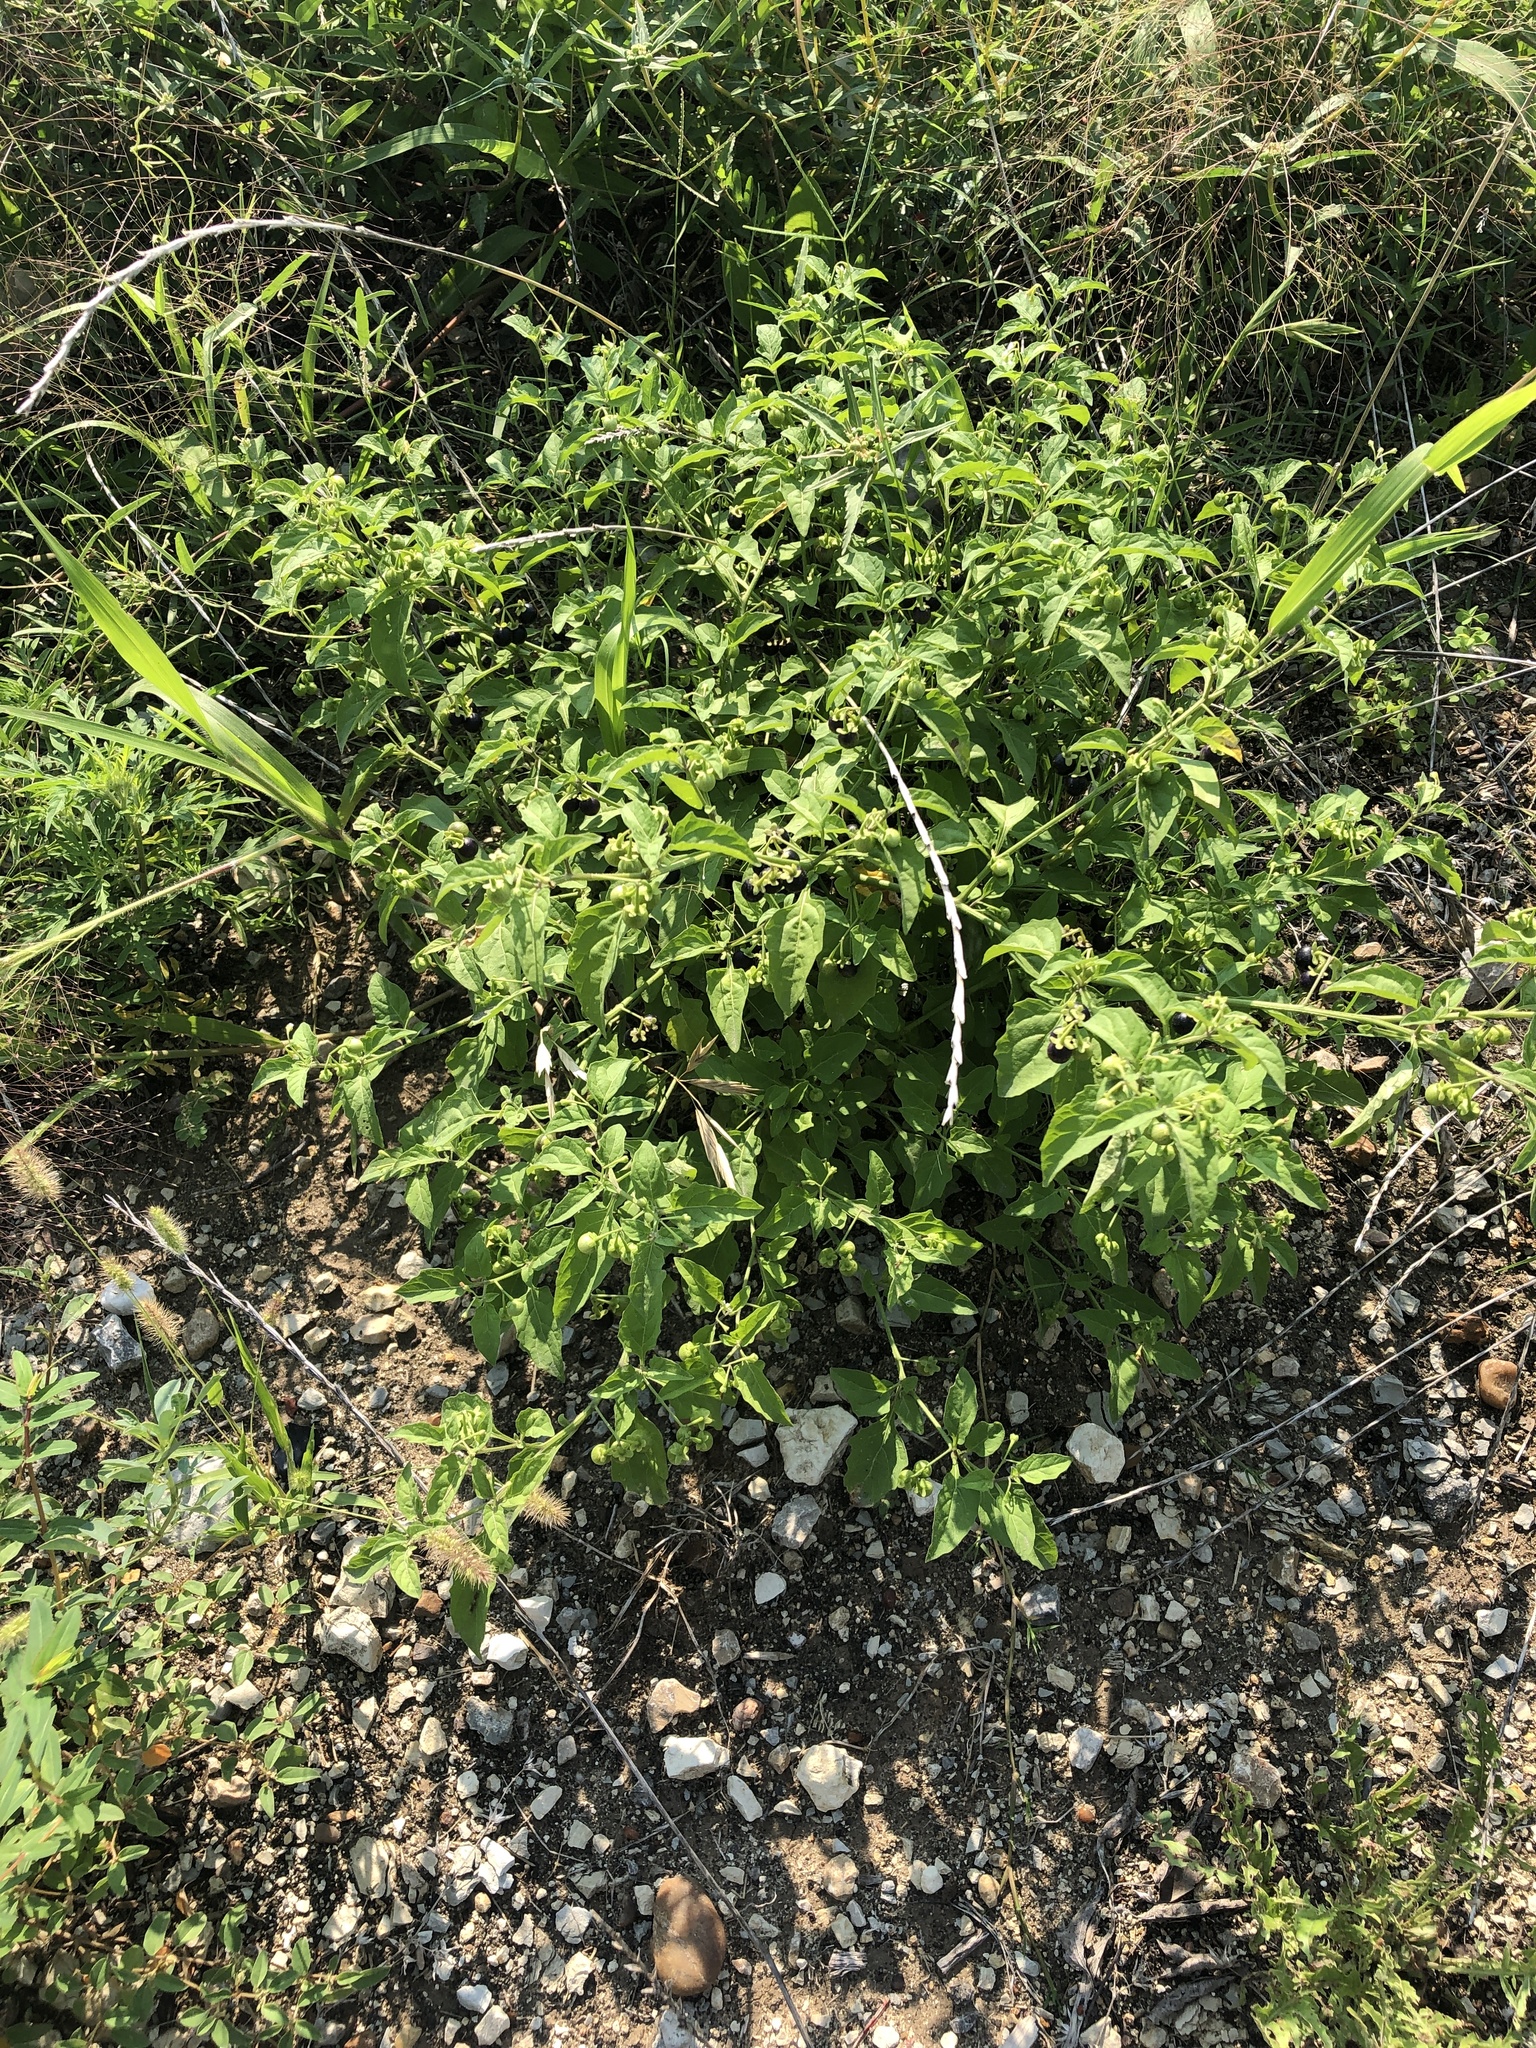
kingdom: Plantae
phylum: Tracheophyta
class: Magnoliopsida
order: Solanales
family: Solanaceae
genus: Solanum
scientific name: Solanum emulans
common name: Eastern black nightshade
